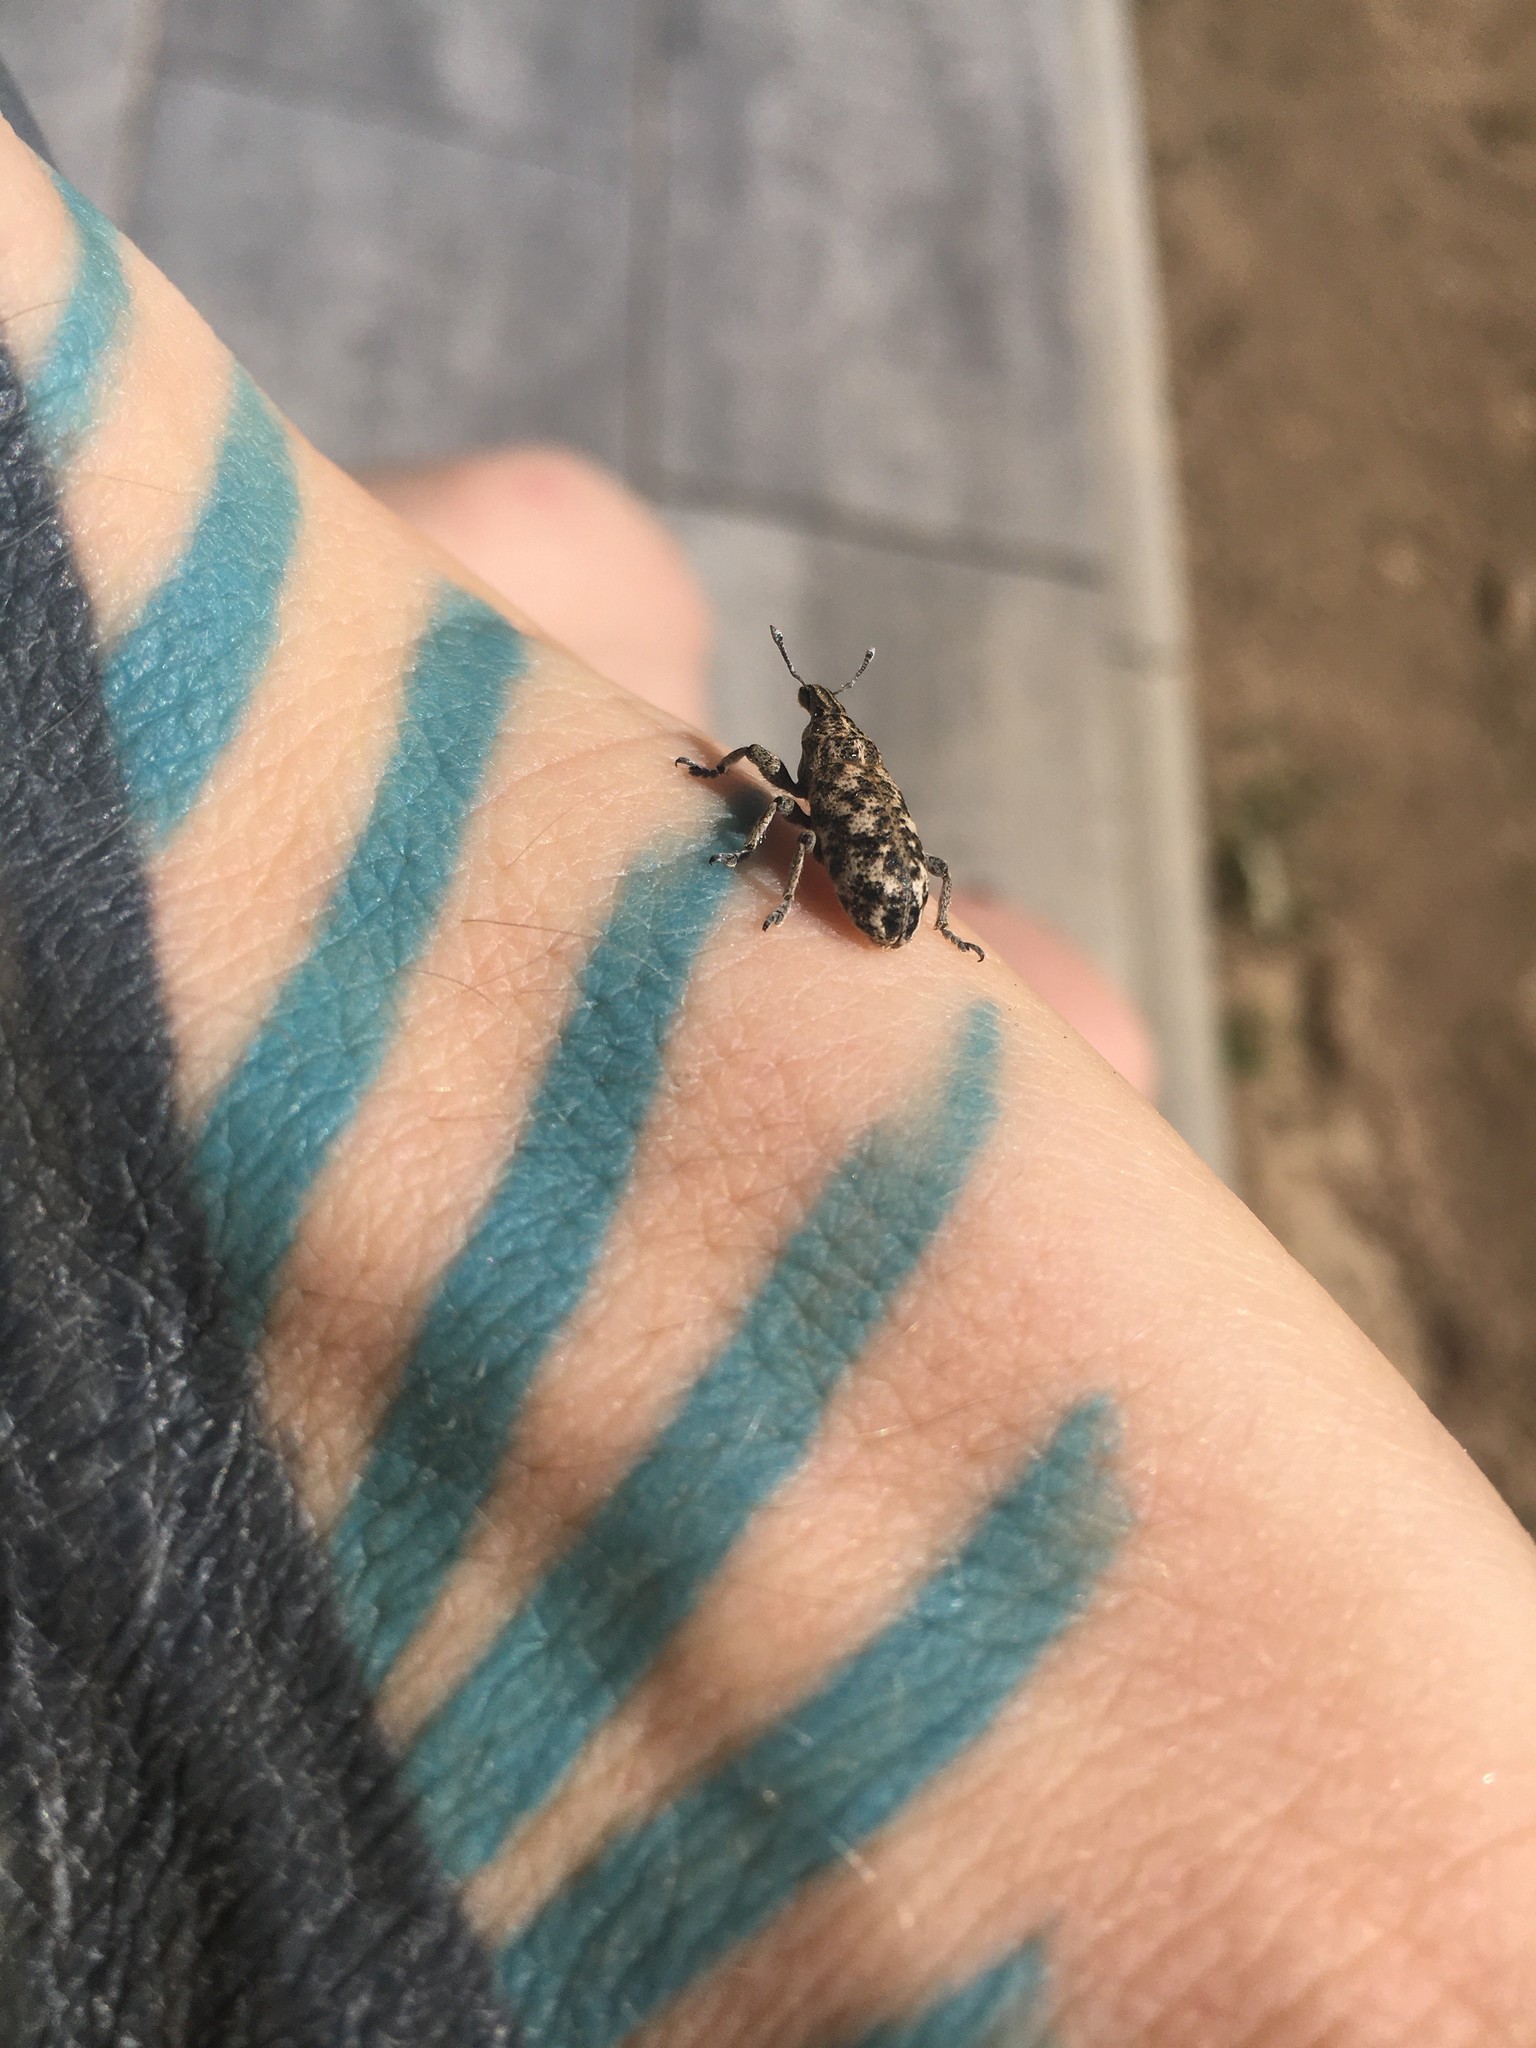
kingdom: Animalia
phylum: Arthropoda
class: Insecta
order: Coleoptera
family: Curculionidae
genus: Cyphocleonus
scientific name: Cyphocleonus dealbatus
